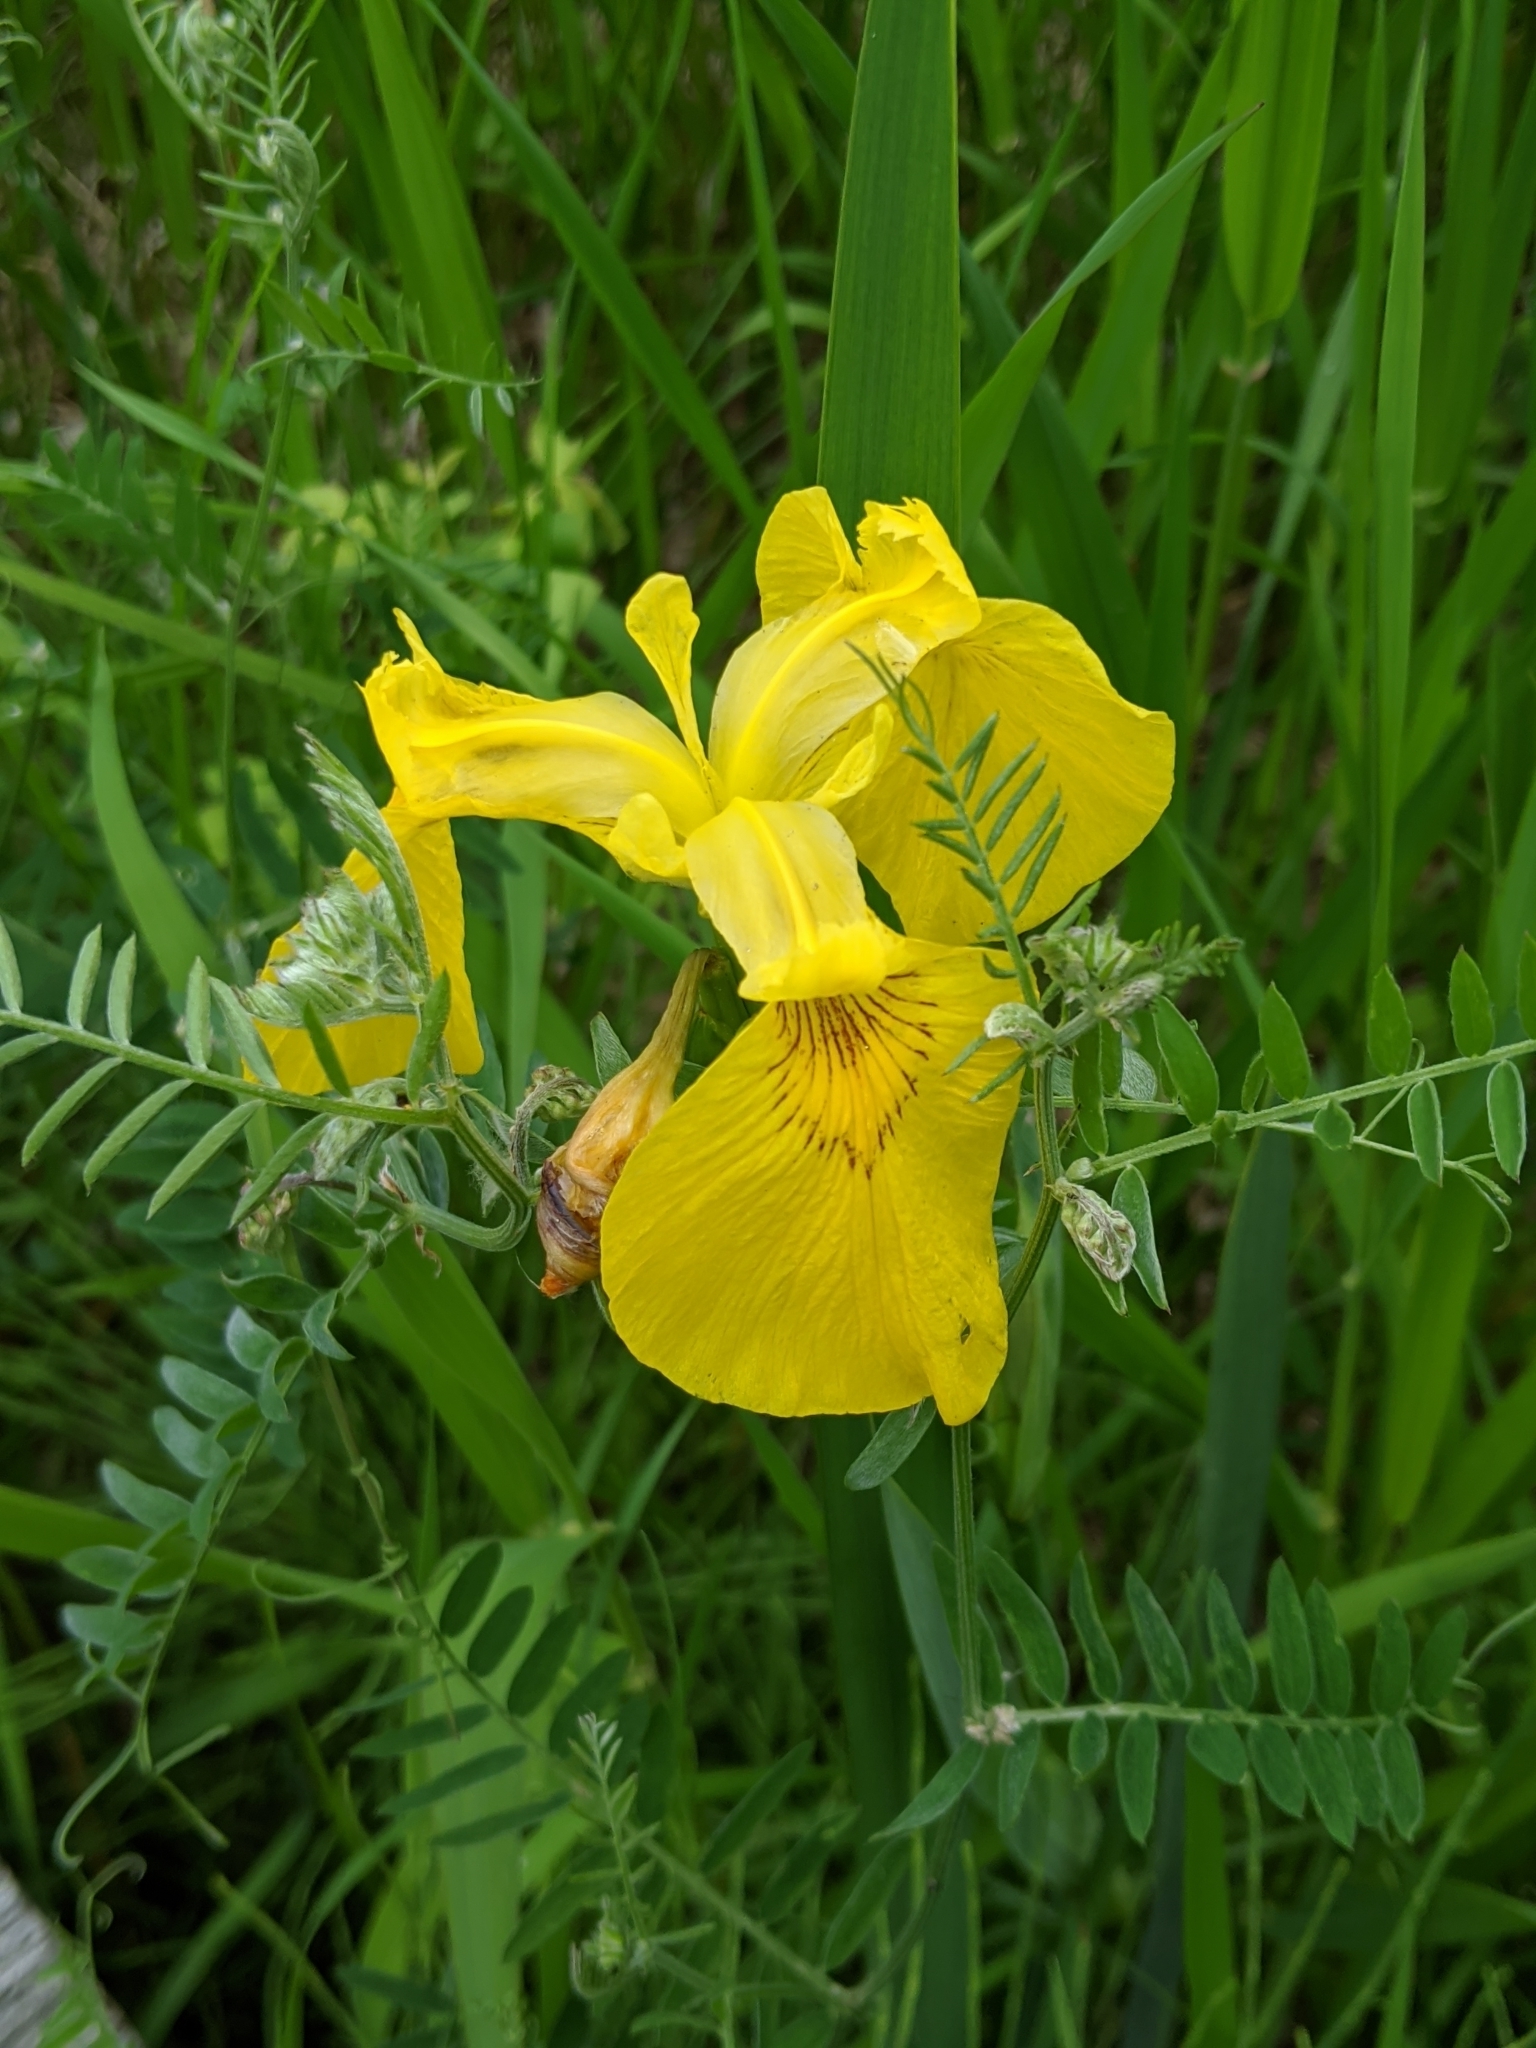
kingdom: Plantae
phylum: Tracheophyta
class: Liliopsida
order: Asparagales
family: Iridaceae
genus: Iris
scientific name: Iris pseudacorus
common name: Yellow flag
